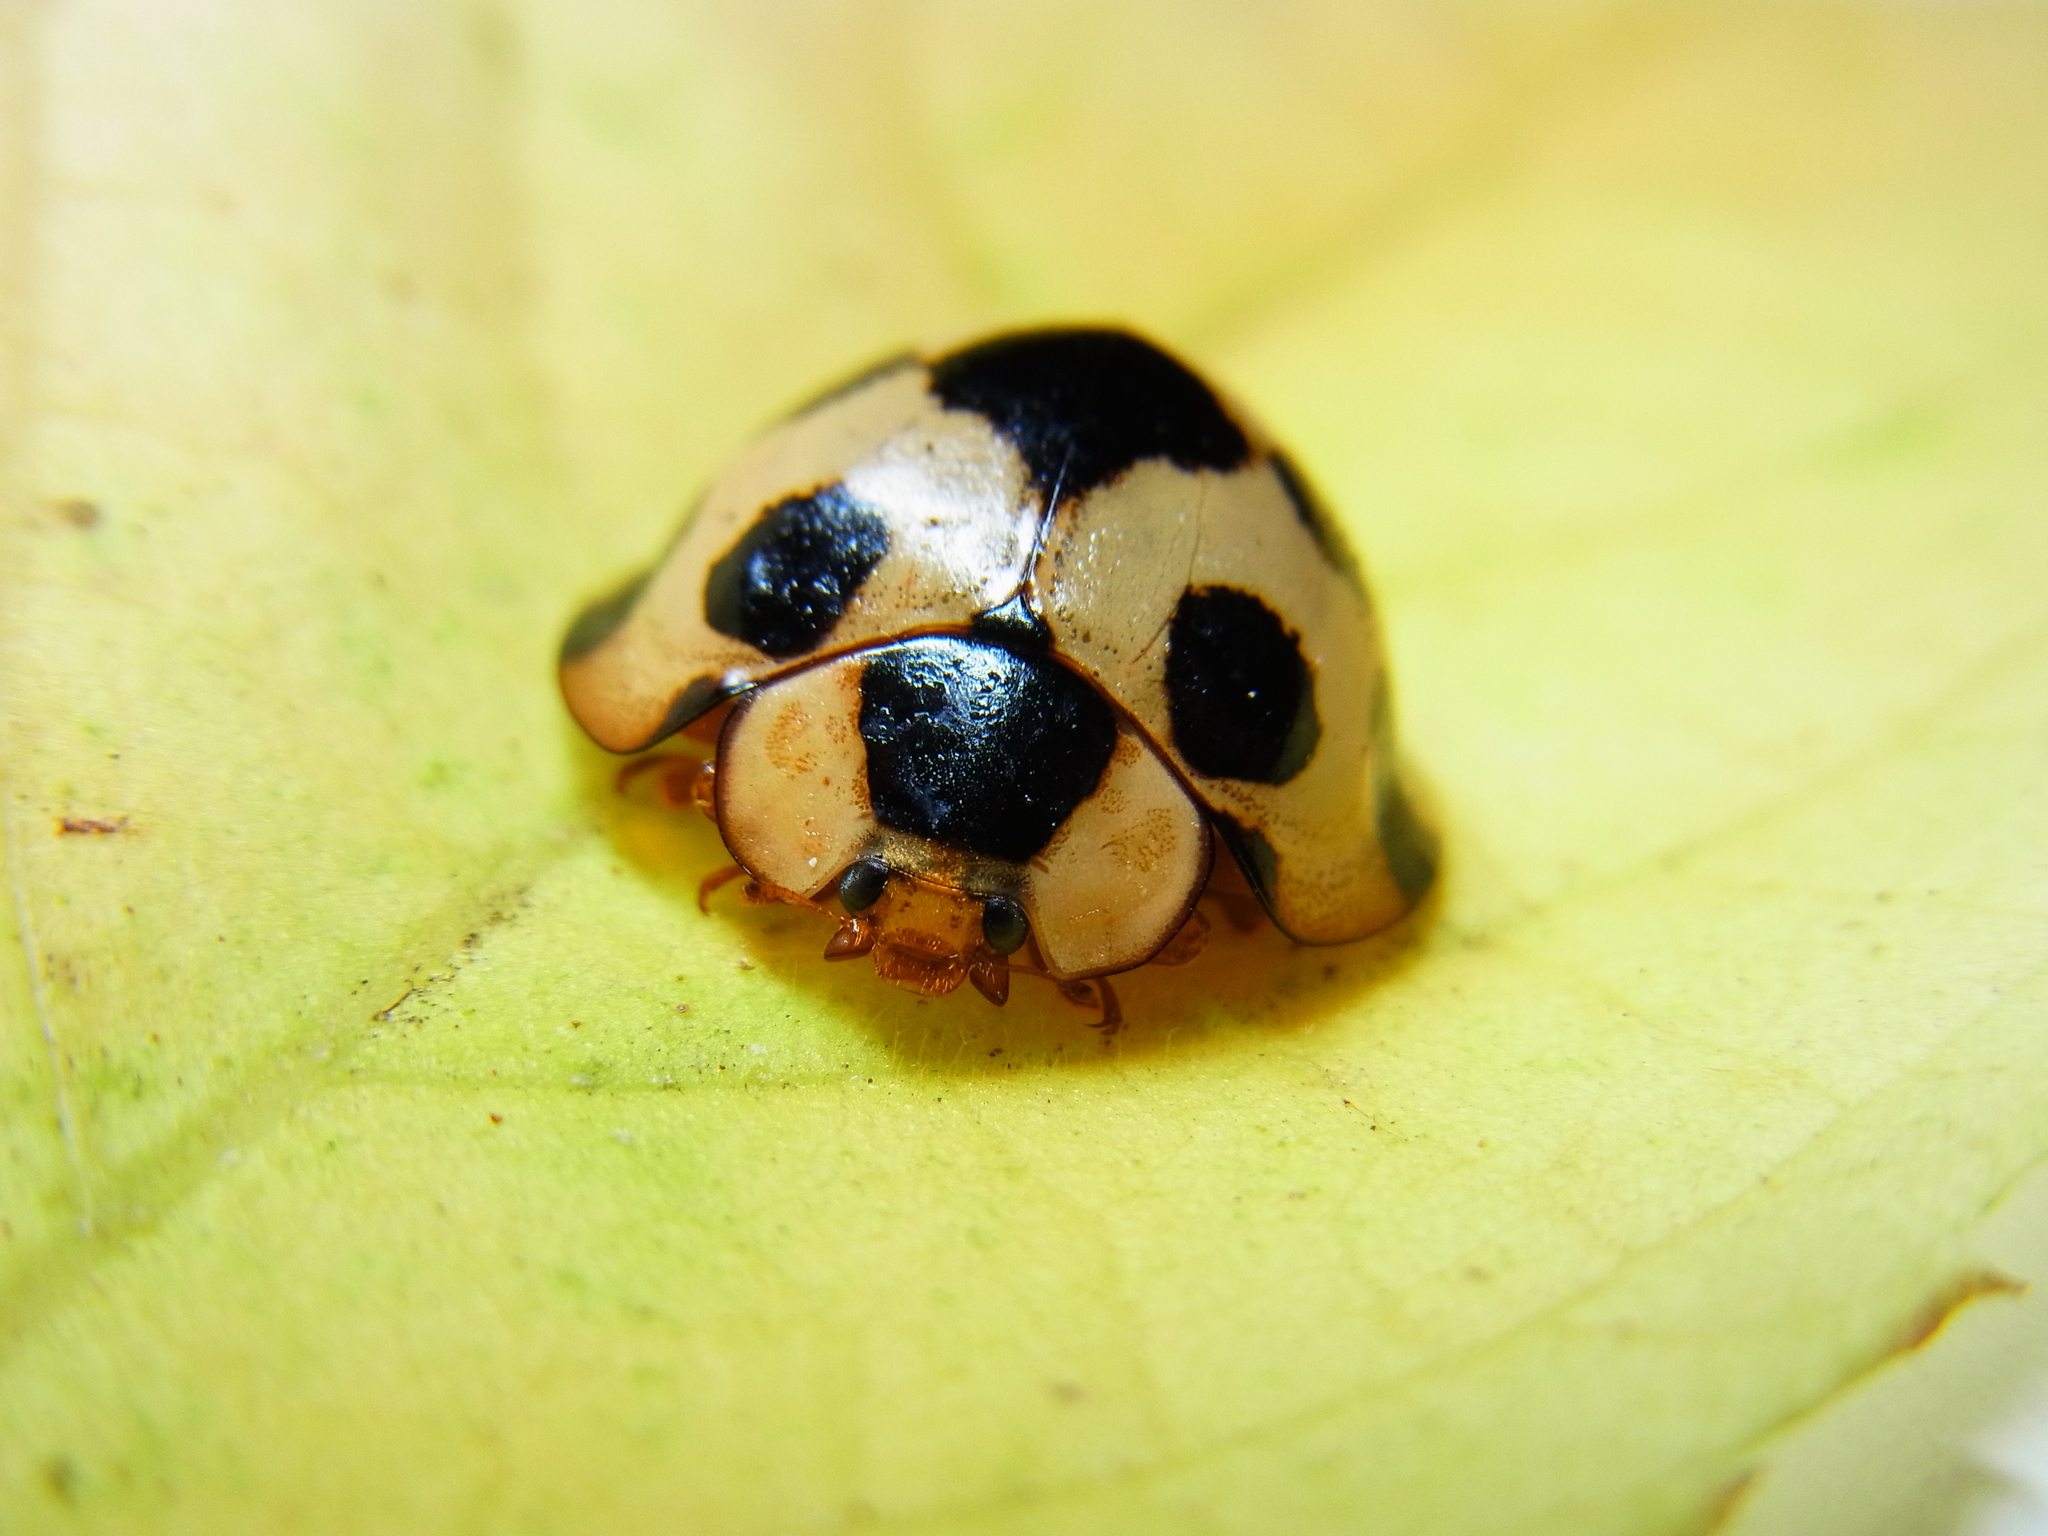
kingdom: Animalia
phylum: Arthropoda
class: Insecta
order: Coleoptera
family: Coccinellidae
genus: Synonycha
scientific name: Synonycha grandis
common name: Lady beetle
